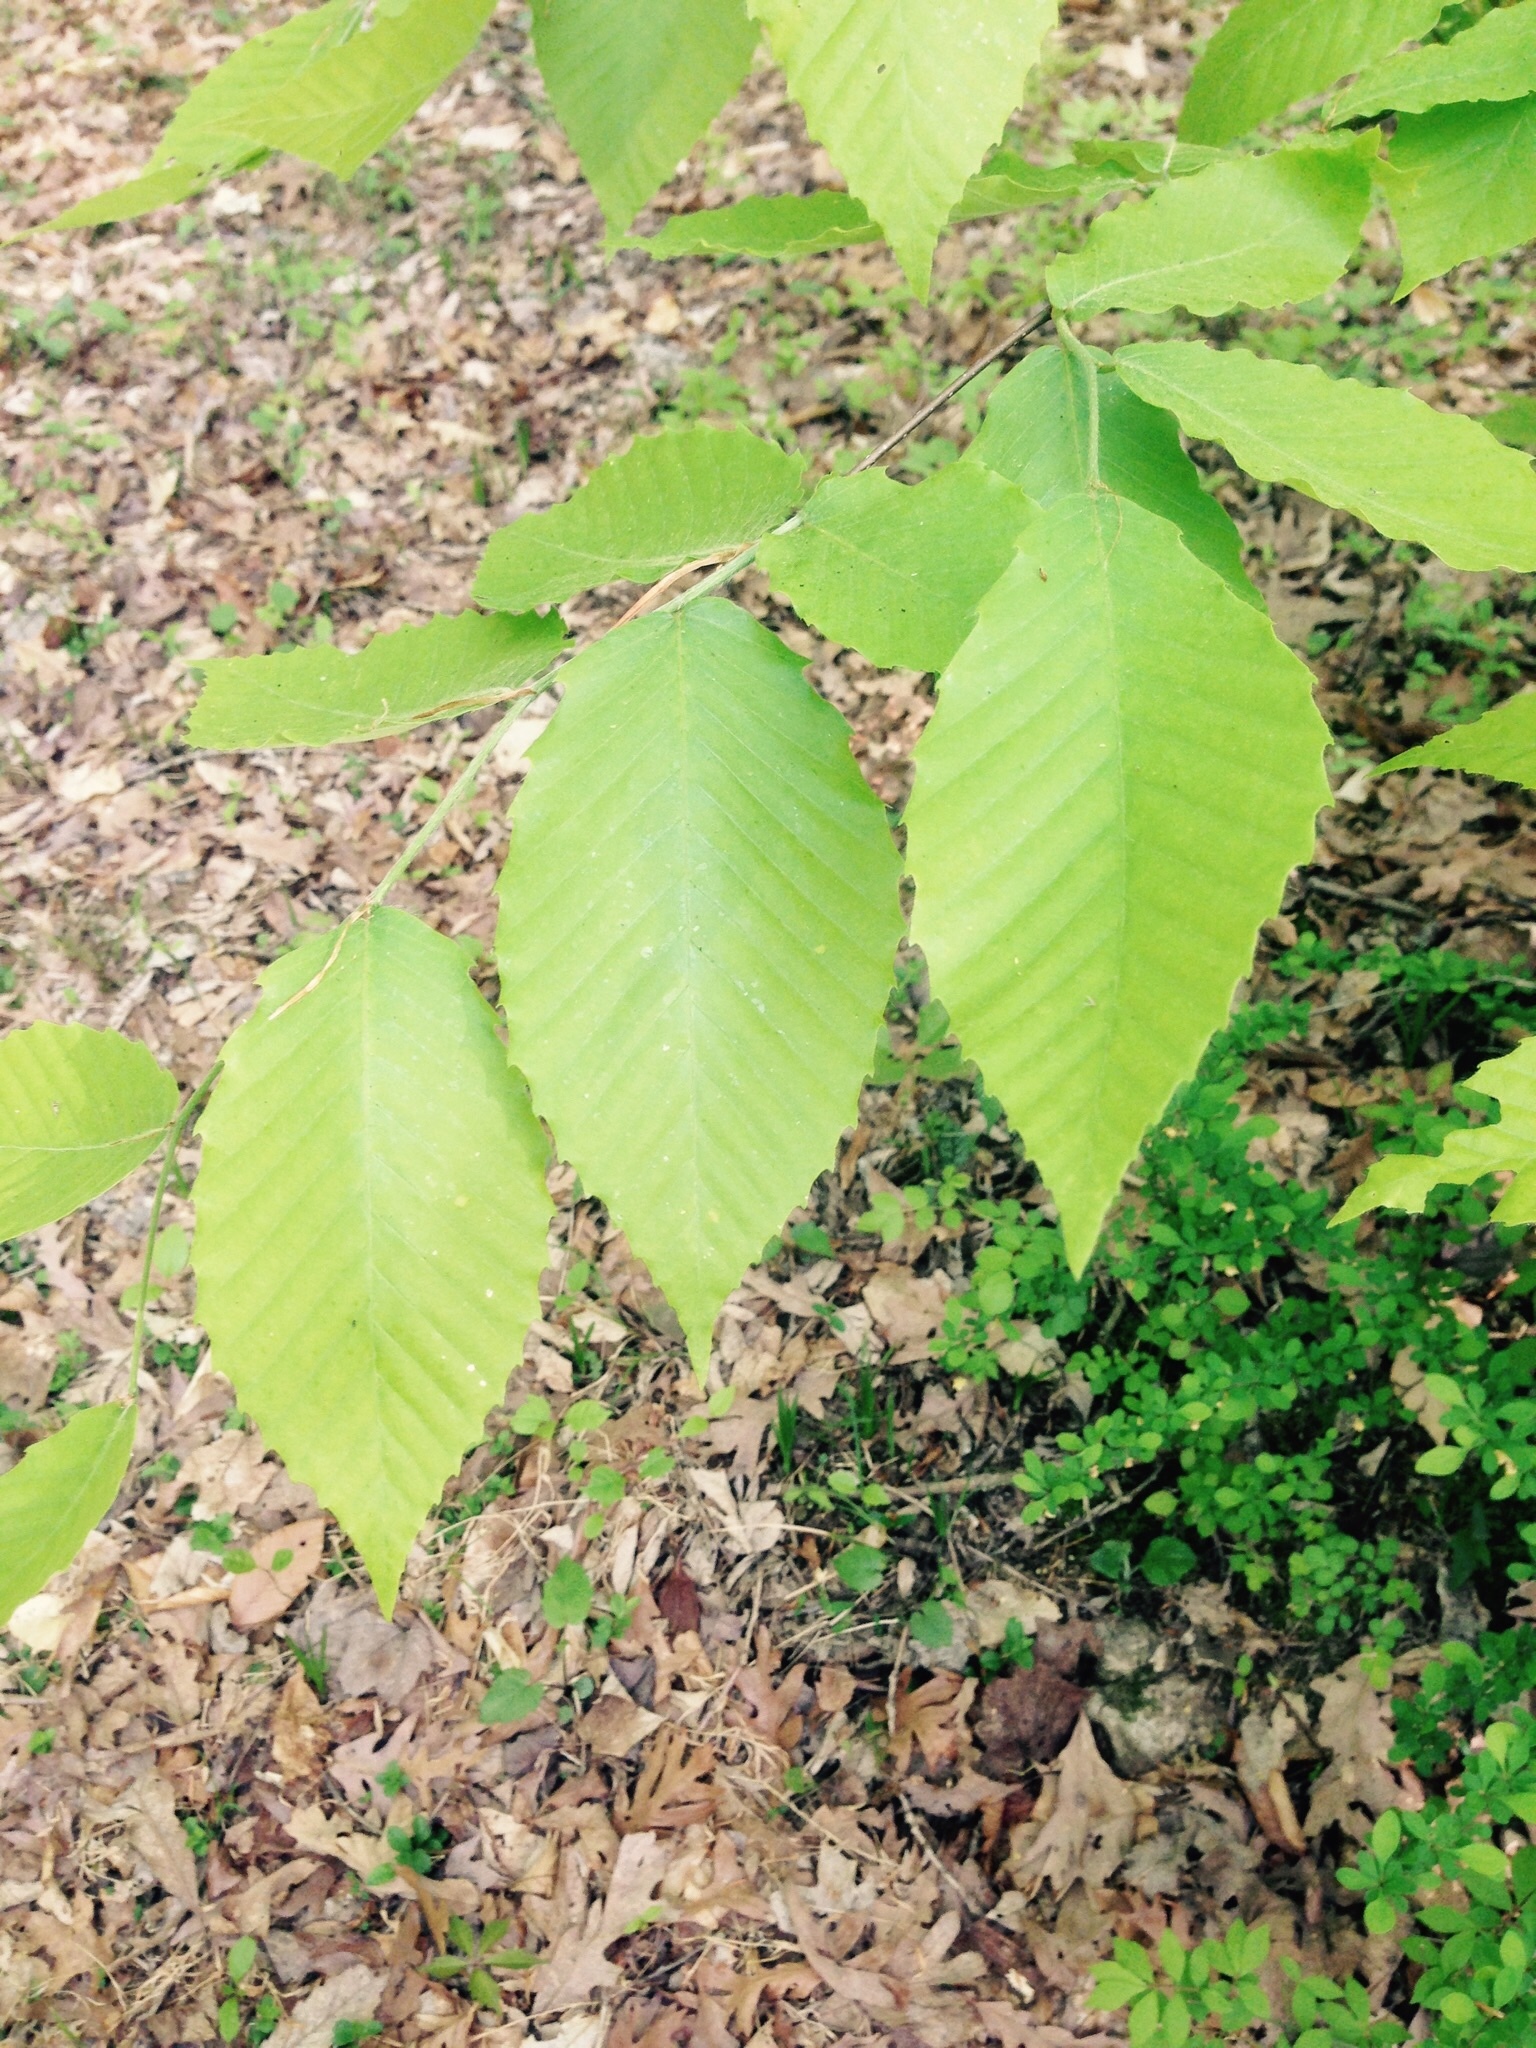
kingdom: Plantae
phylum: Tracheophyta
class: Magnoliopsida
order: Fagales
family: Fagaceae
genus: Fagus
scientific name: Fagus grandifolia
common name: American beech
